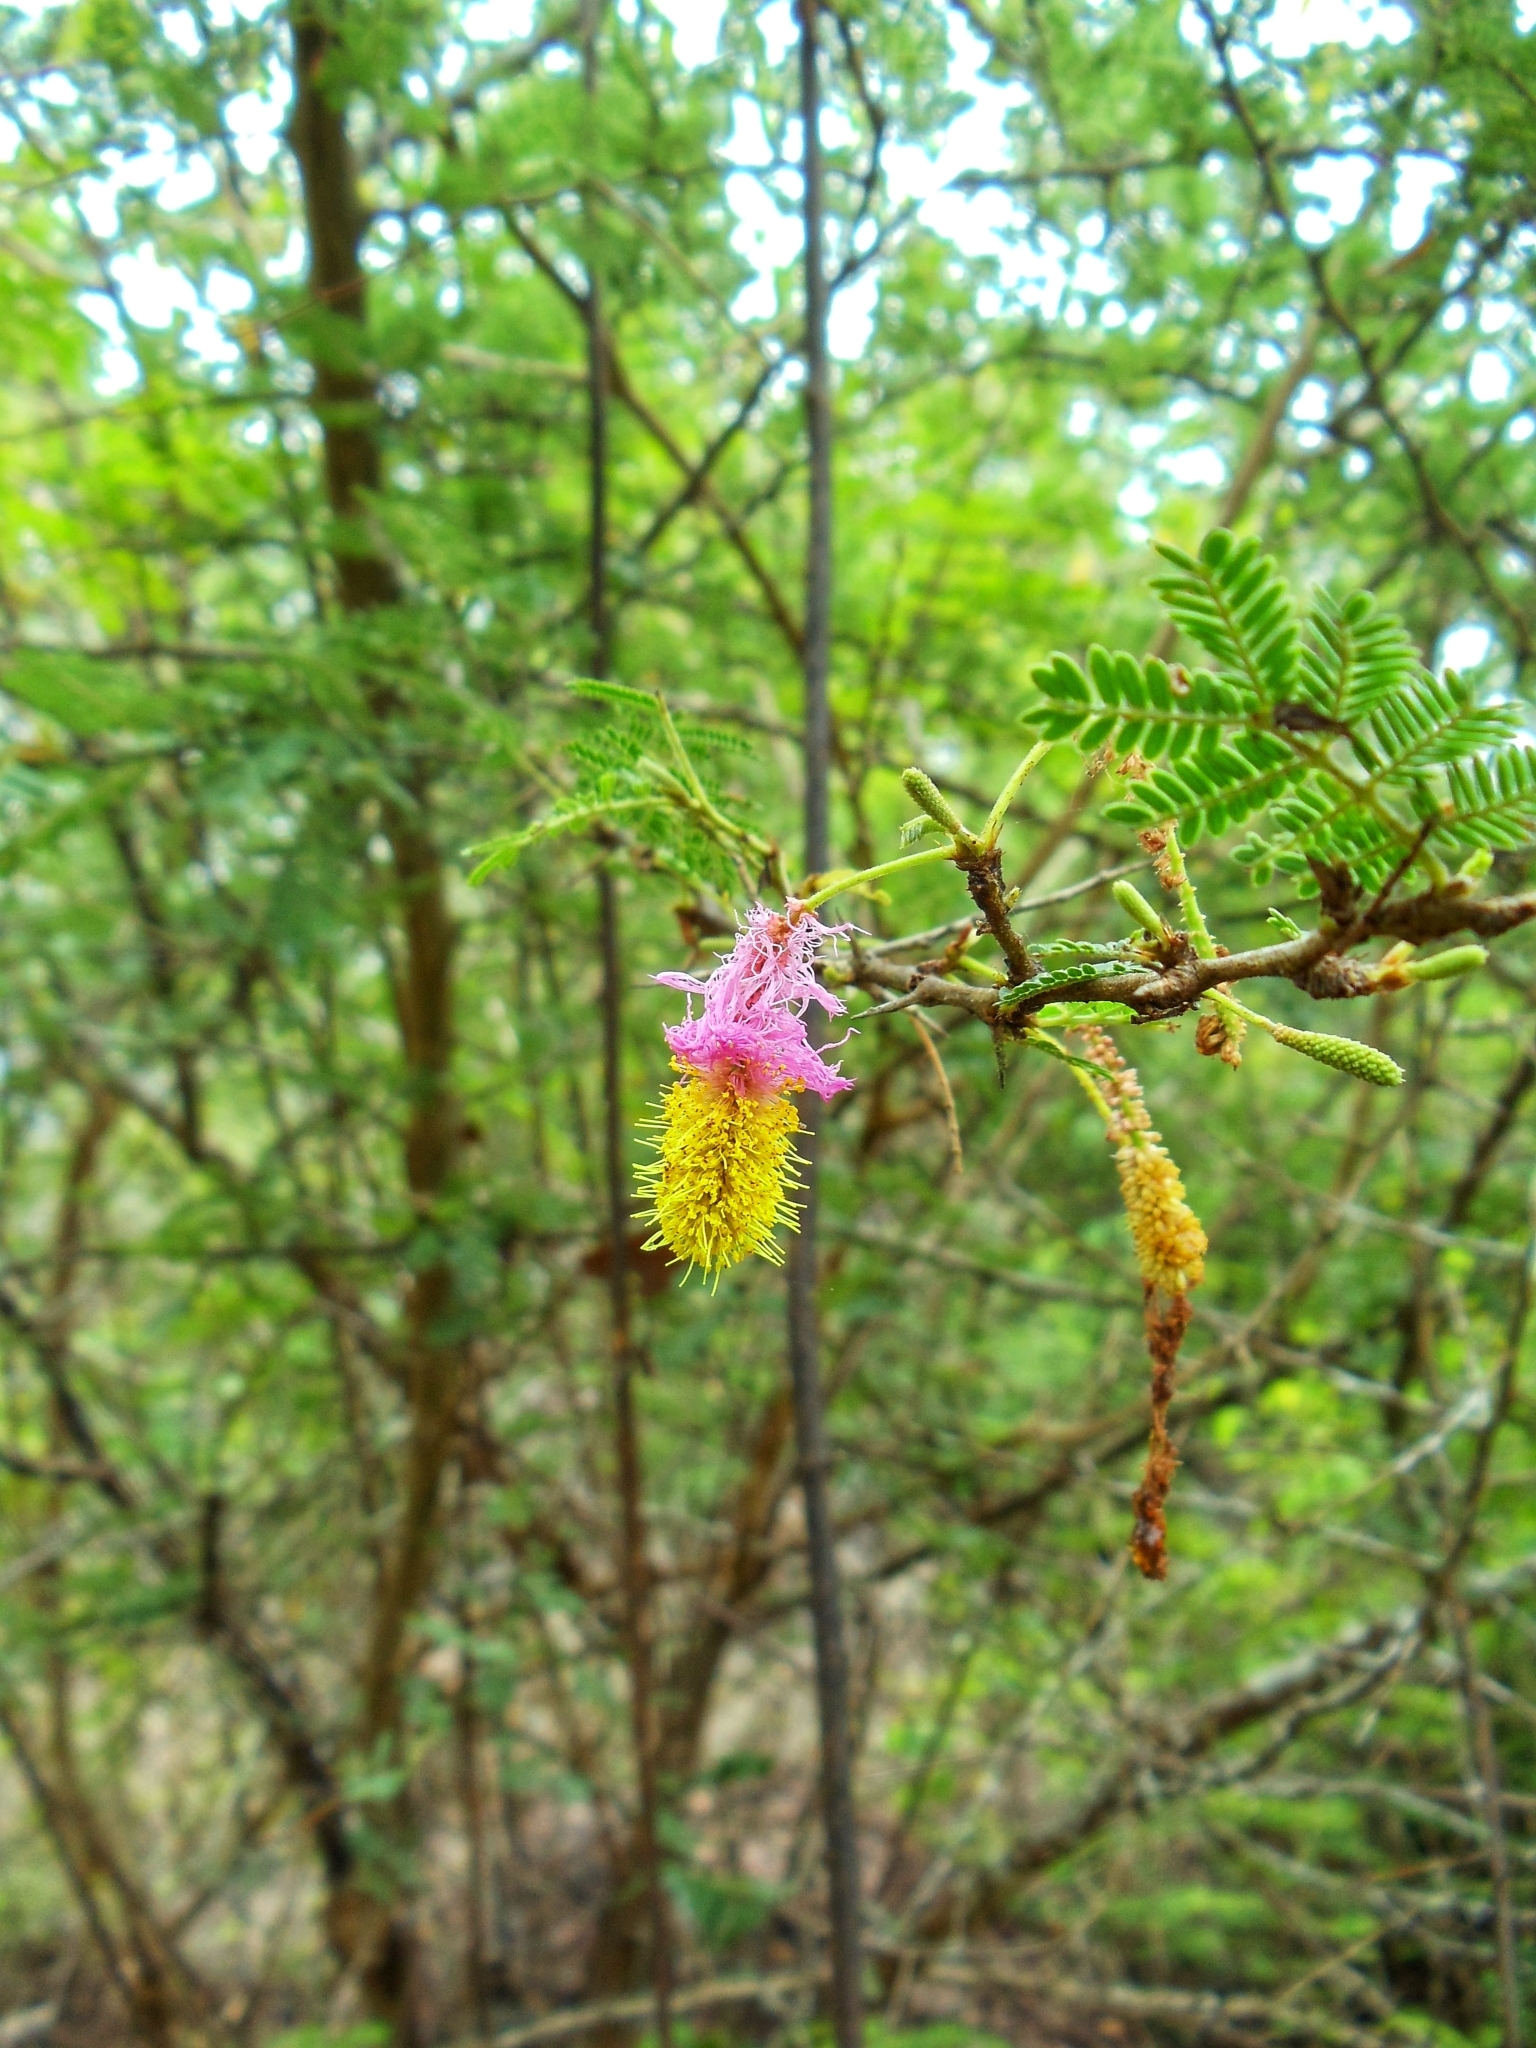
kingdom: Plantae
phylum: Tracheophyta
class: Magnoliopsida
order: Fabales
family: Fabaceae
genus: Dichrostachys
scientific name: Dichrostachys cinerea
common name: Sicklebush
